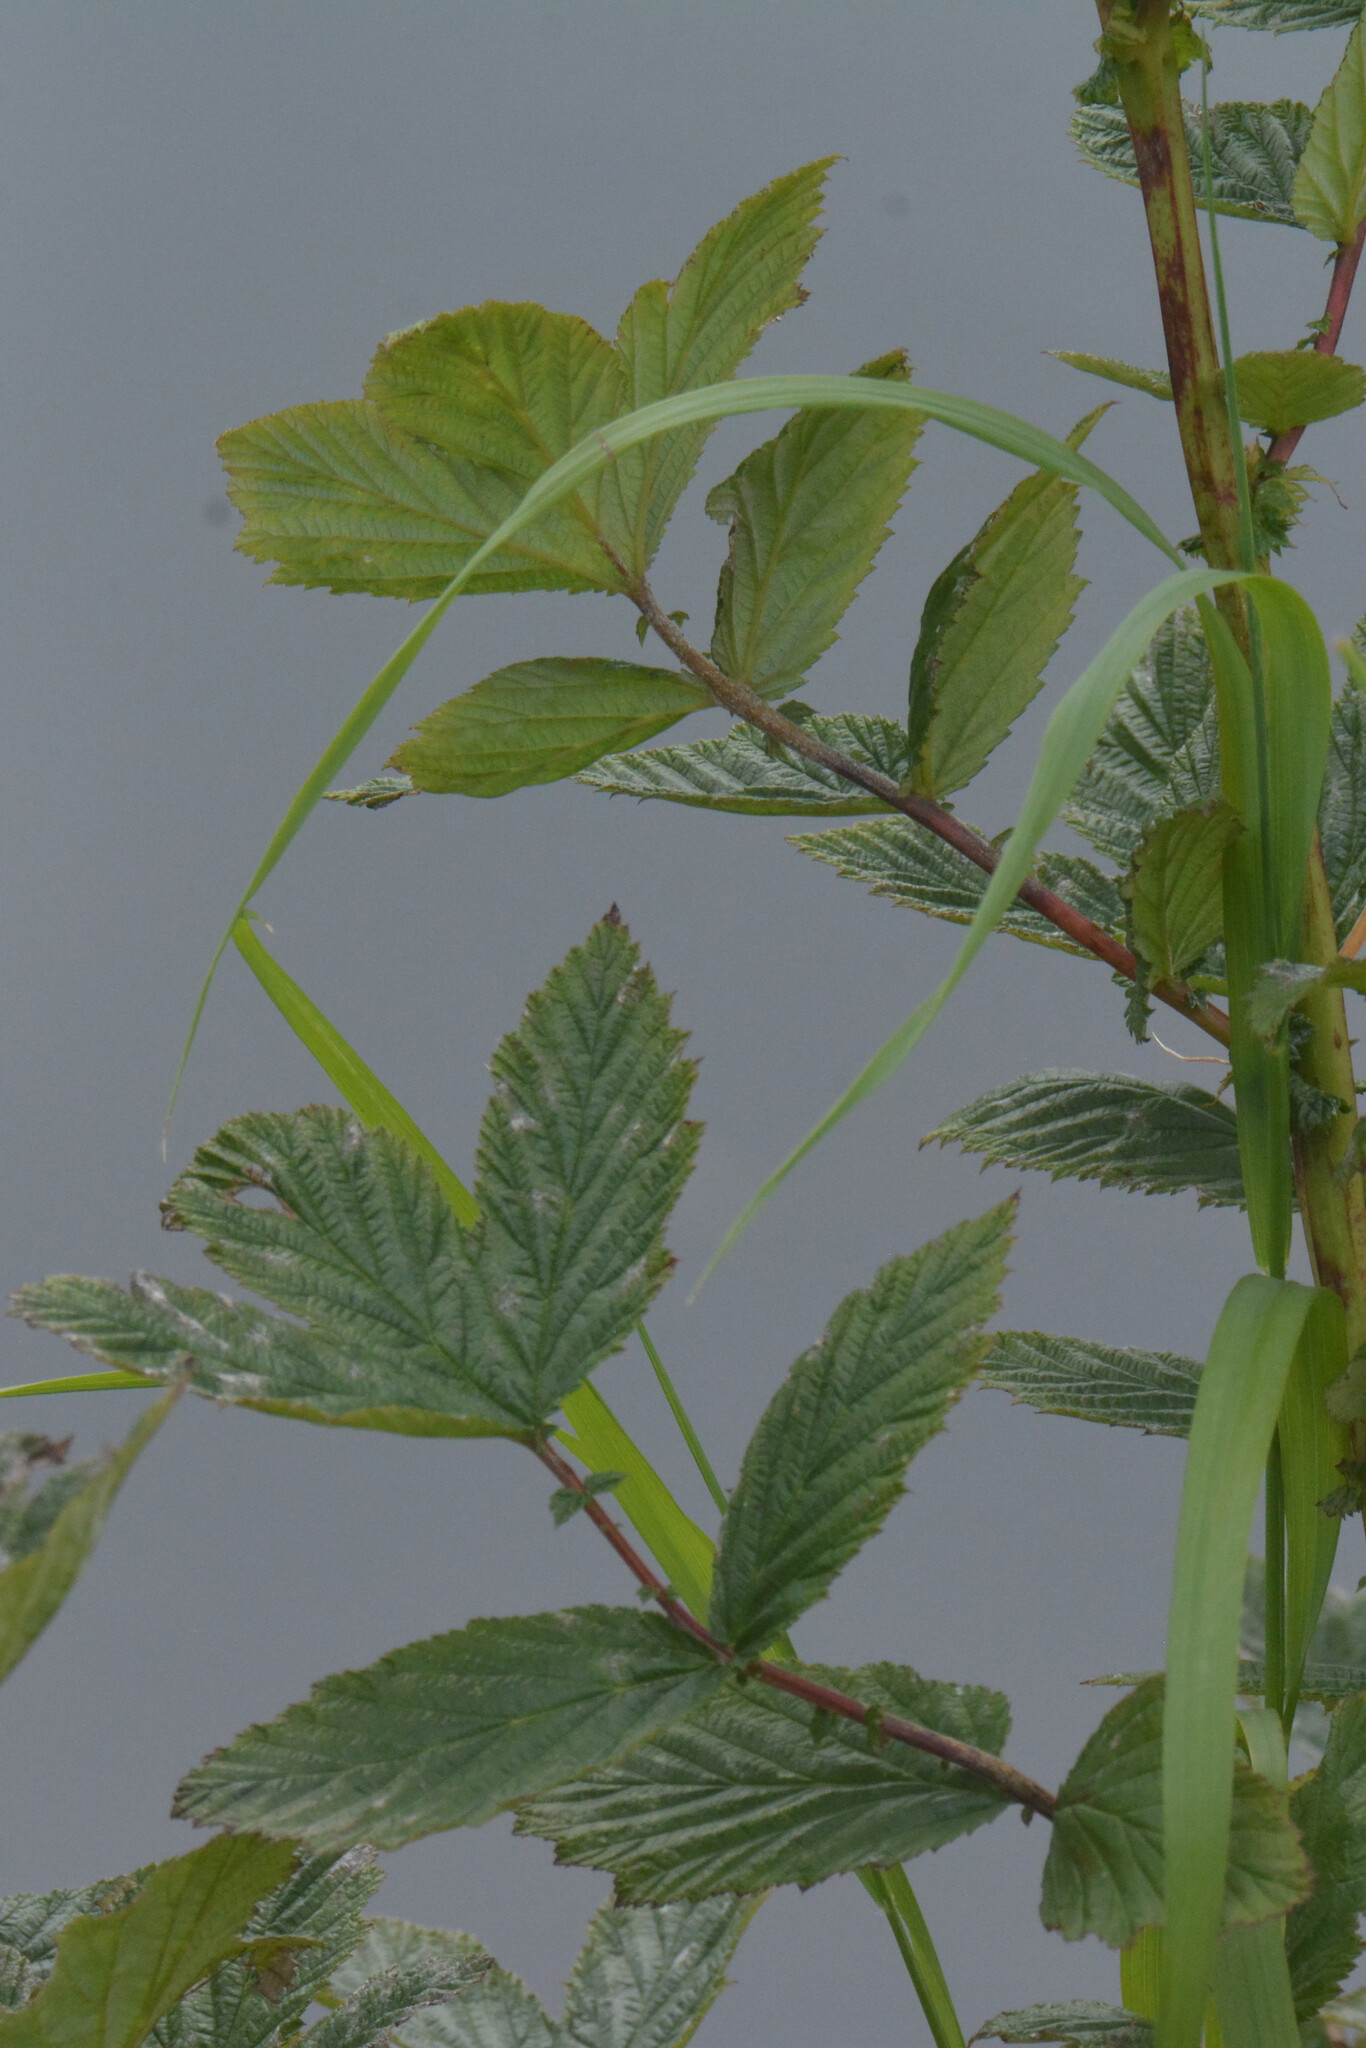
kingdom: Plantae
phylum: Tracheophyta
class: Magnoliopsida
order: Rosales
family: Rosaceae
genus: Filipendula
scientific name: Filipendula ulmaria
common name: Meadowsweet
